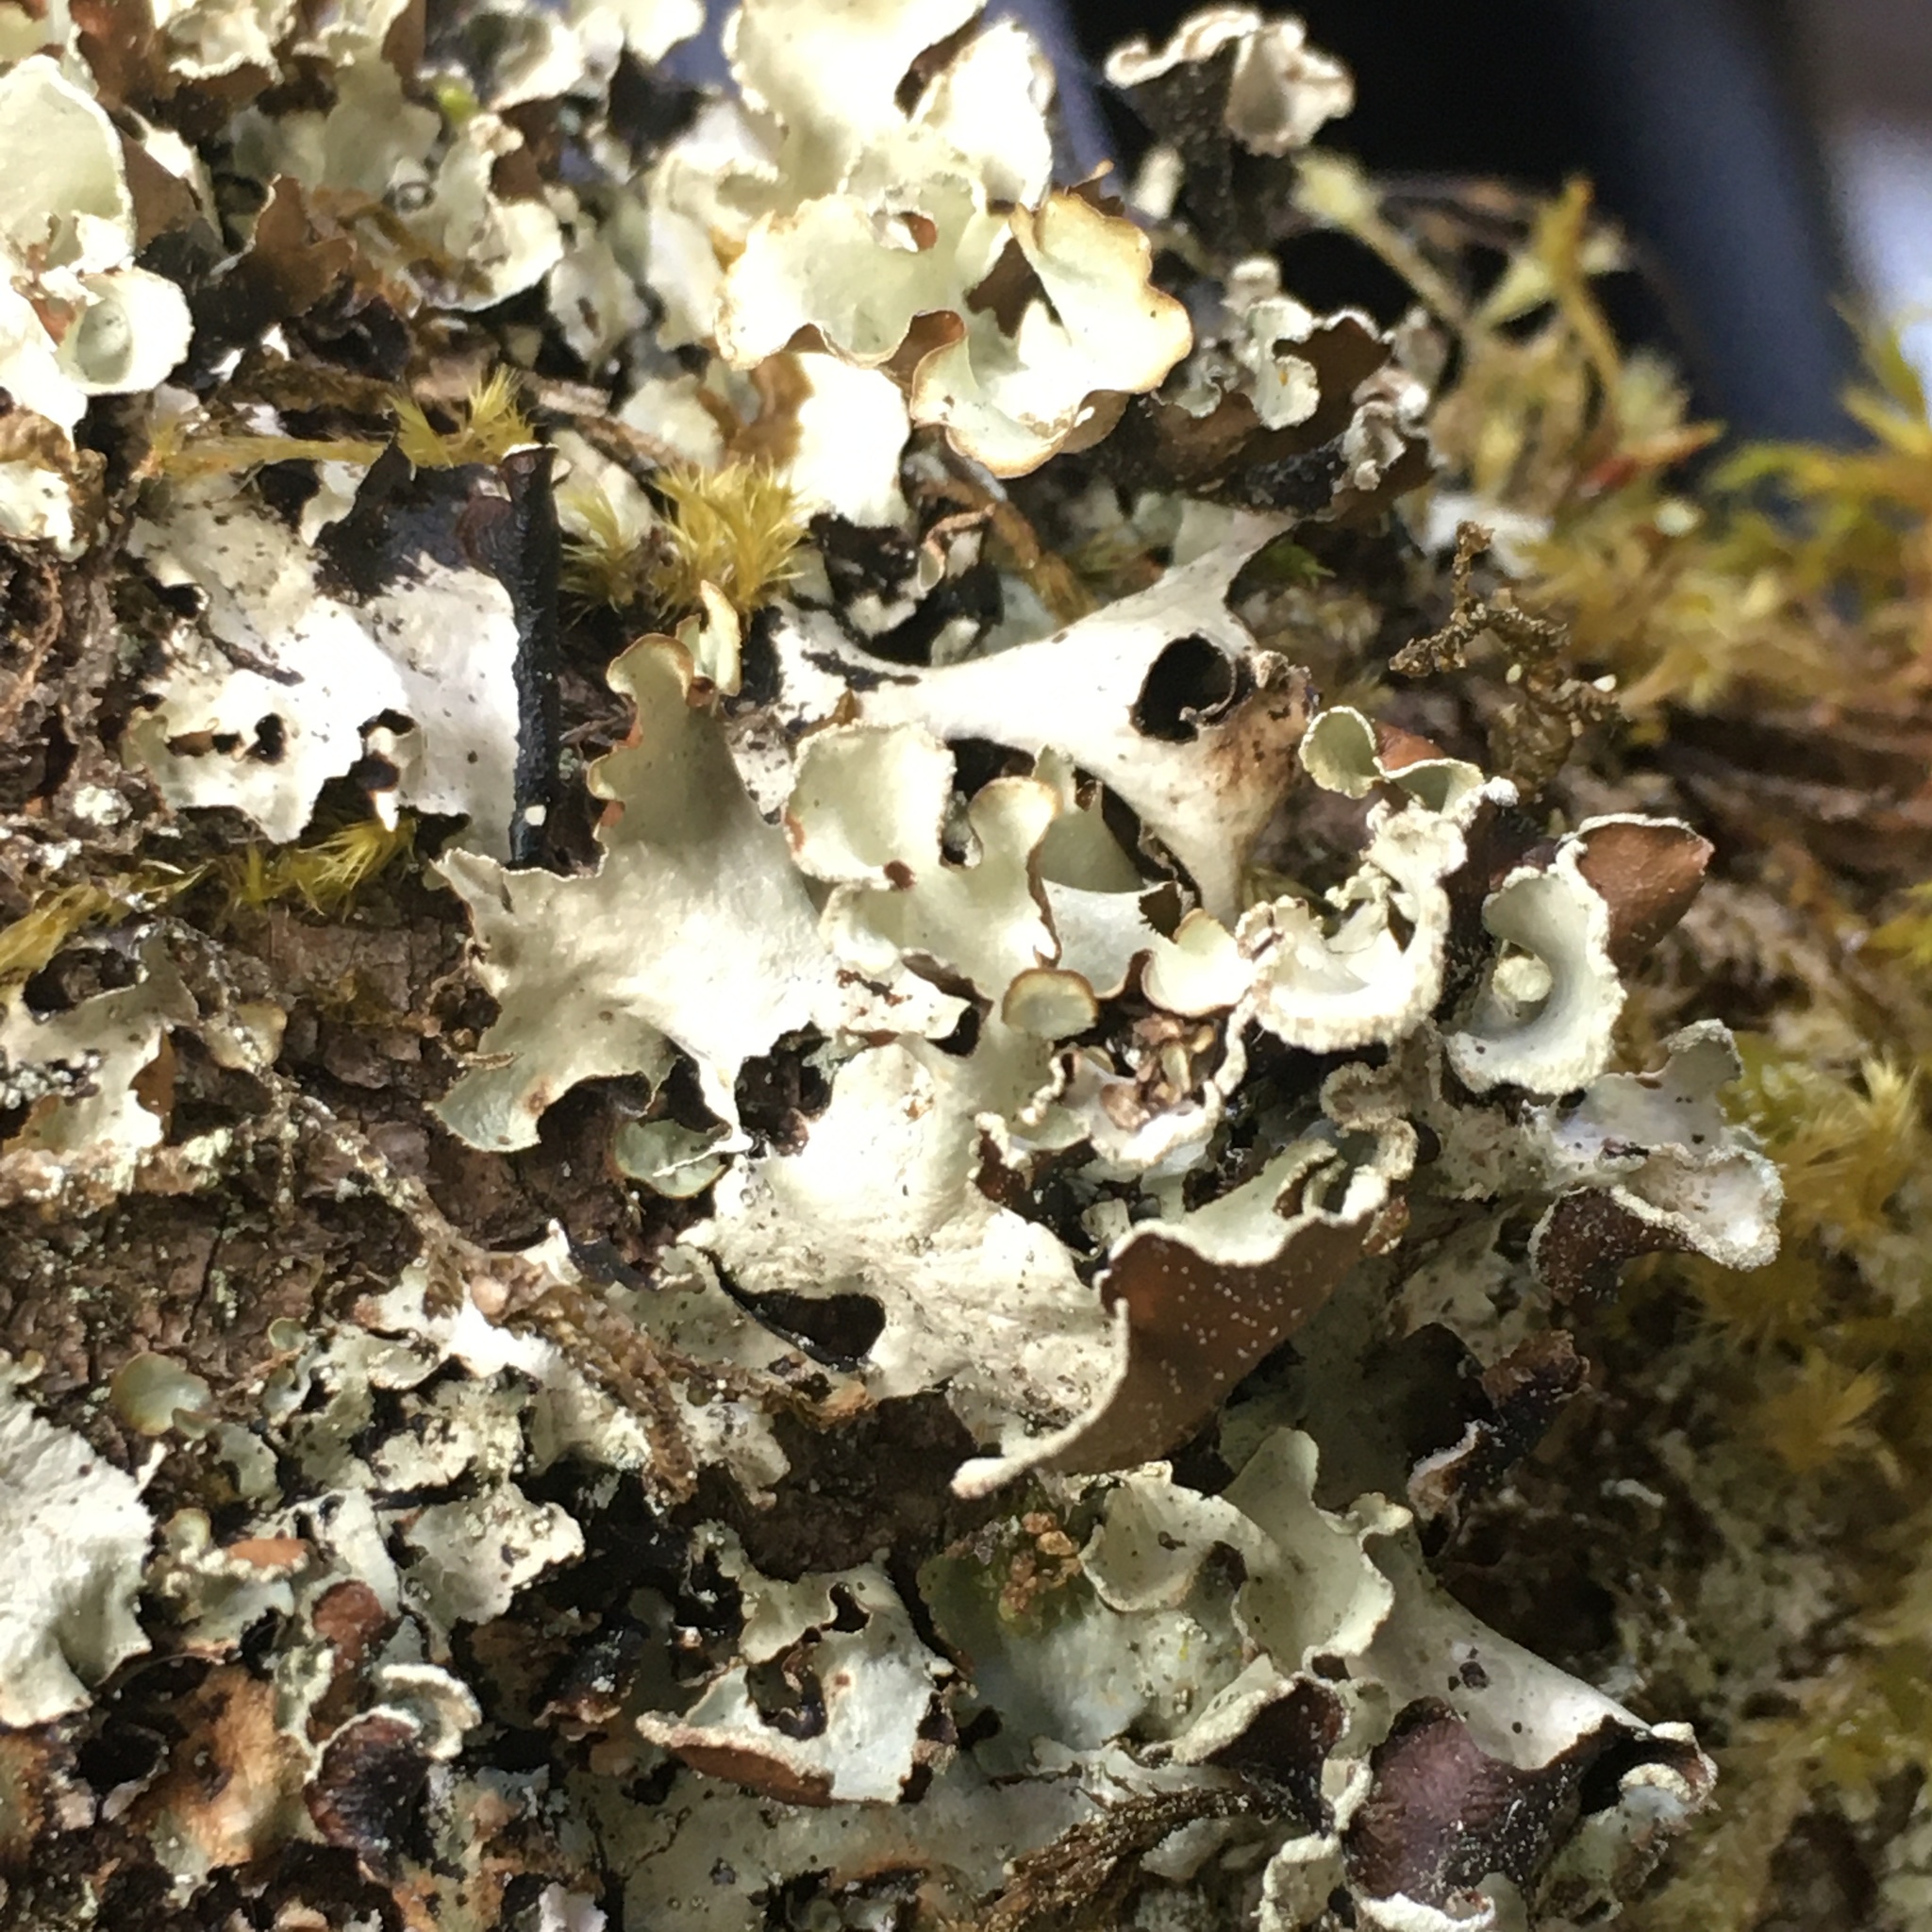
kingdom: Fungi
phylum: Ascomycota
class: Lecanoromycetes
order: Lecanorales
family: Parmeliaceae
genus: Cetrelia
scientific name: Cetrelia cetrarioides
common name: Speckled iceland lichen
